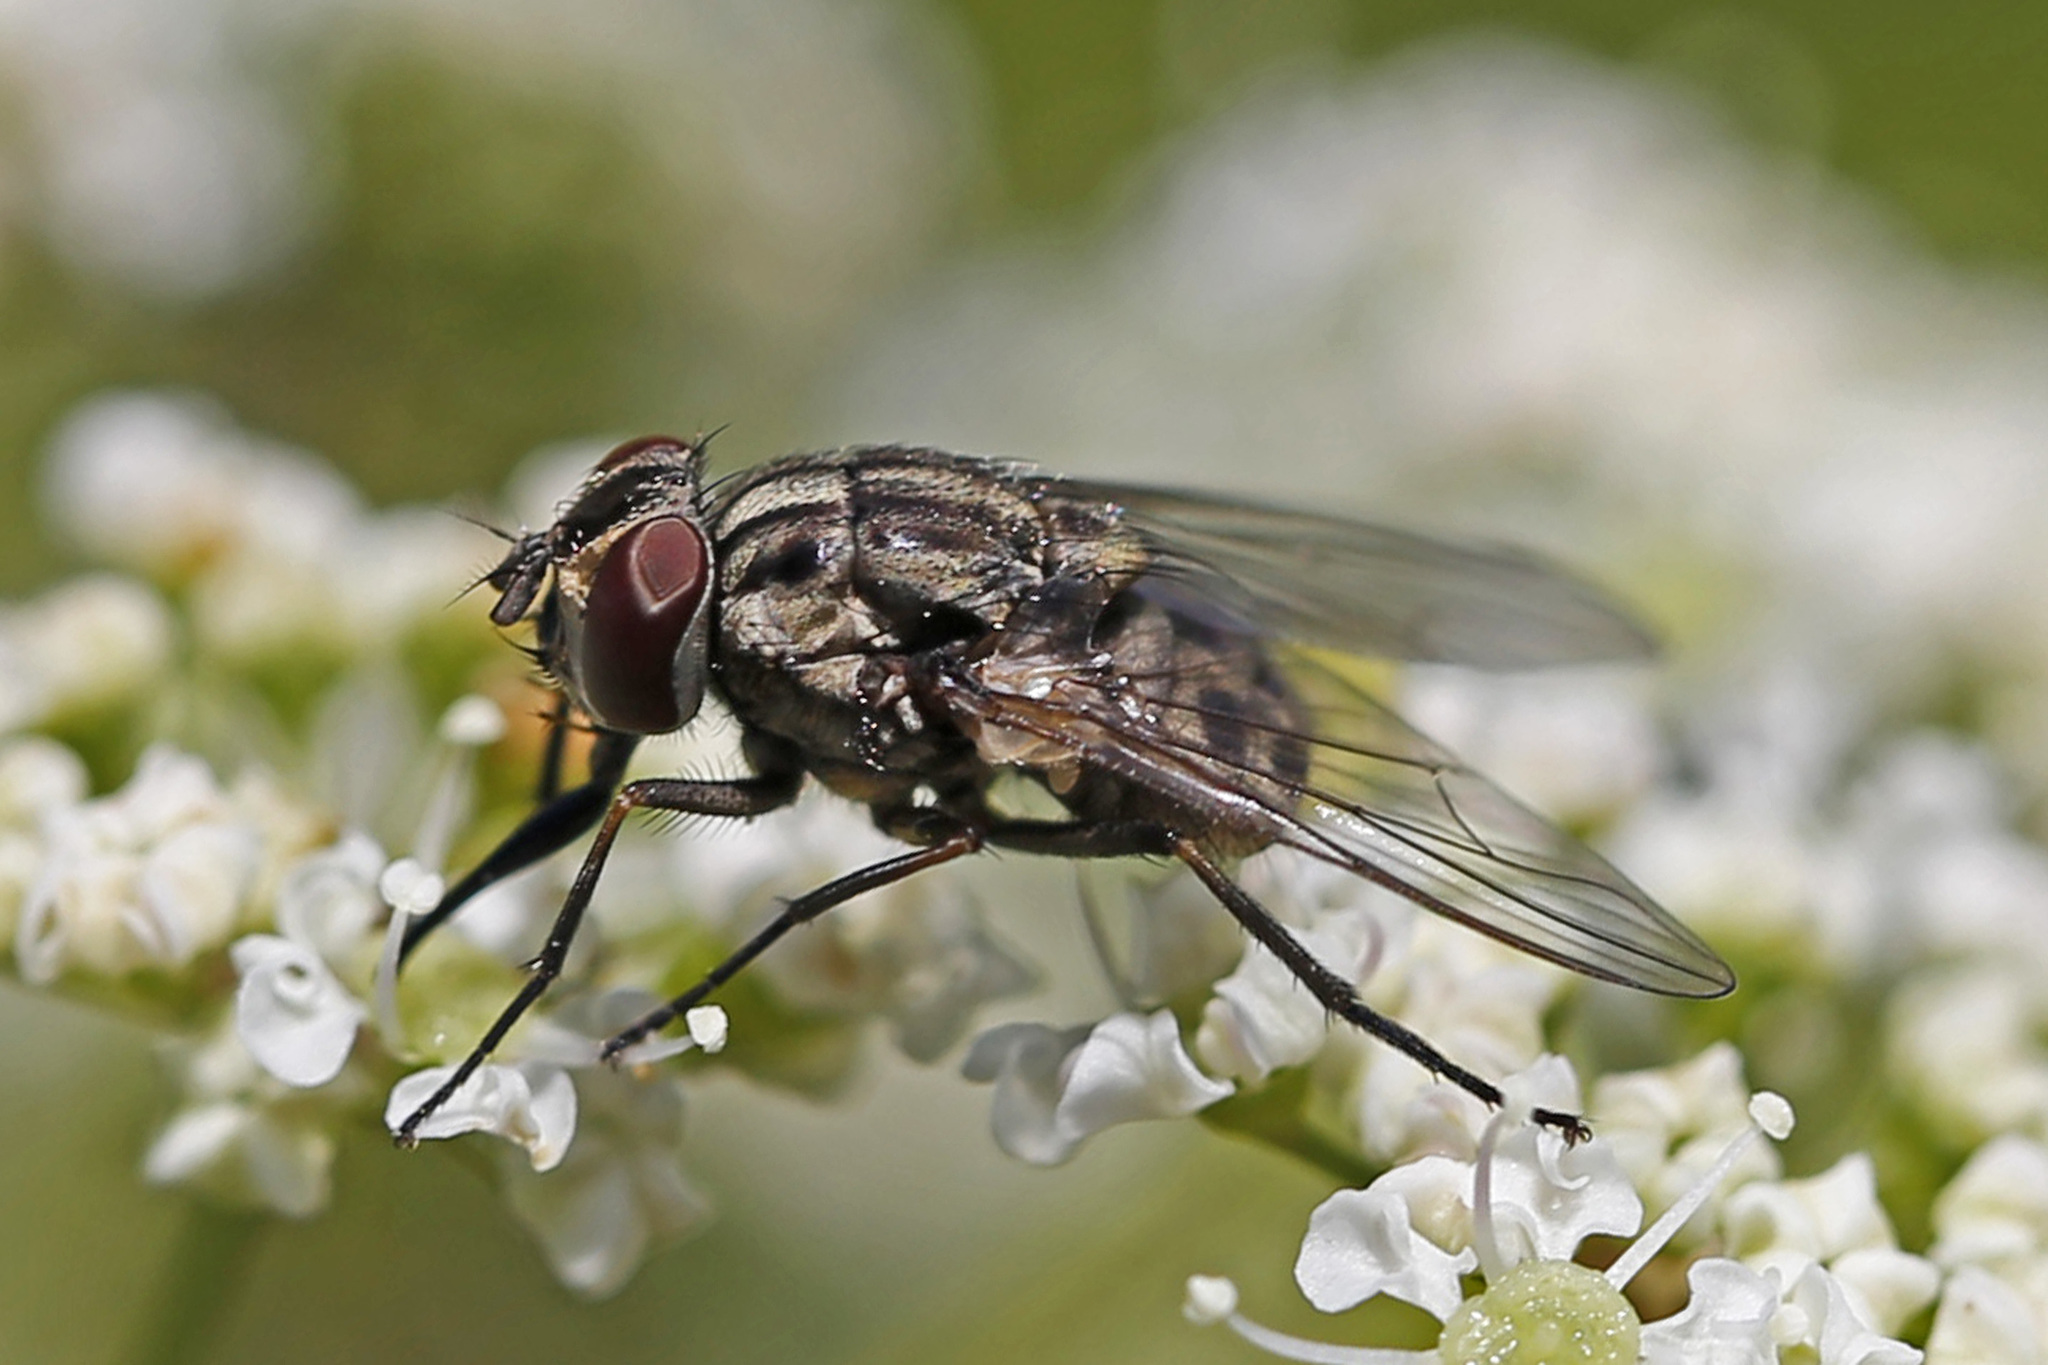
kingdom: Animalia
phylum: Arthropoda
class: Insecta
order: Diptera
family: Muscidae
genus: Stomoxys
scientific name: Stomoxys calcitrans
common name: Stable fly
